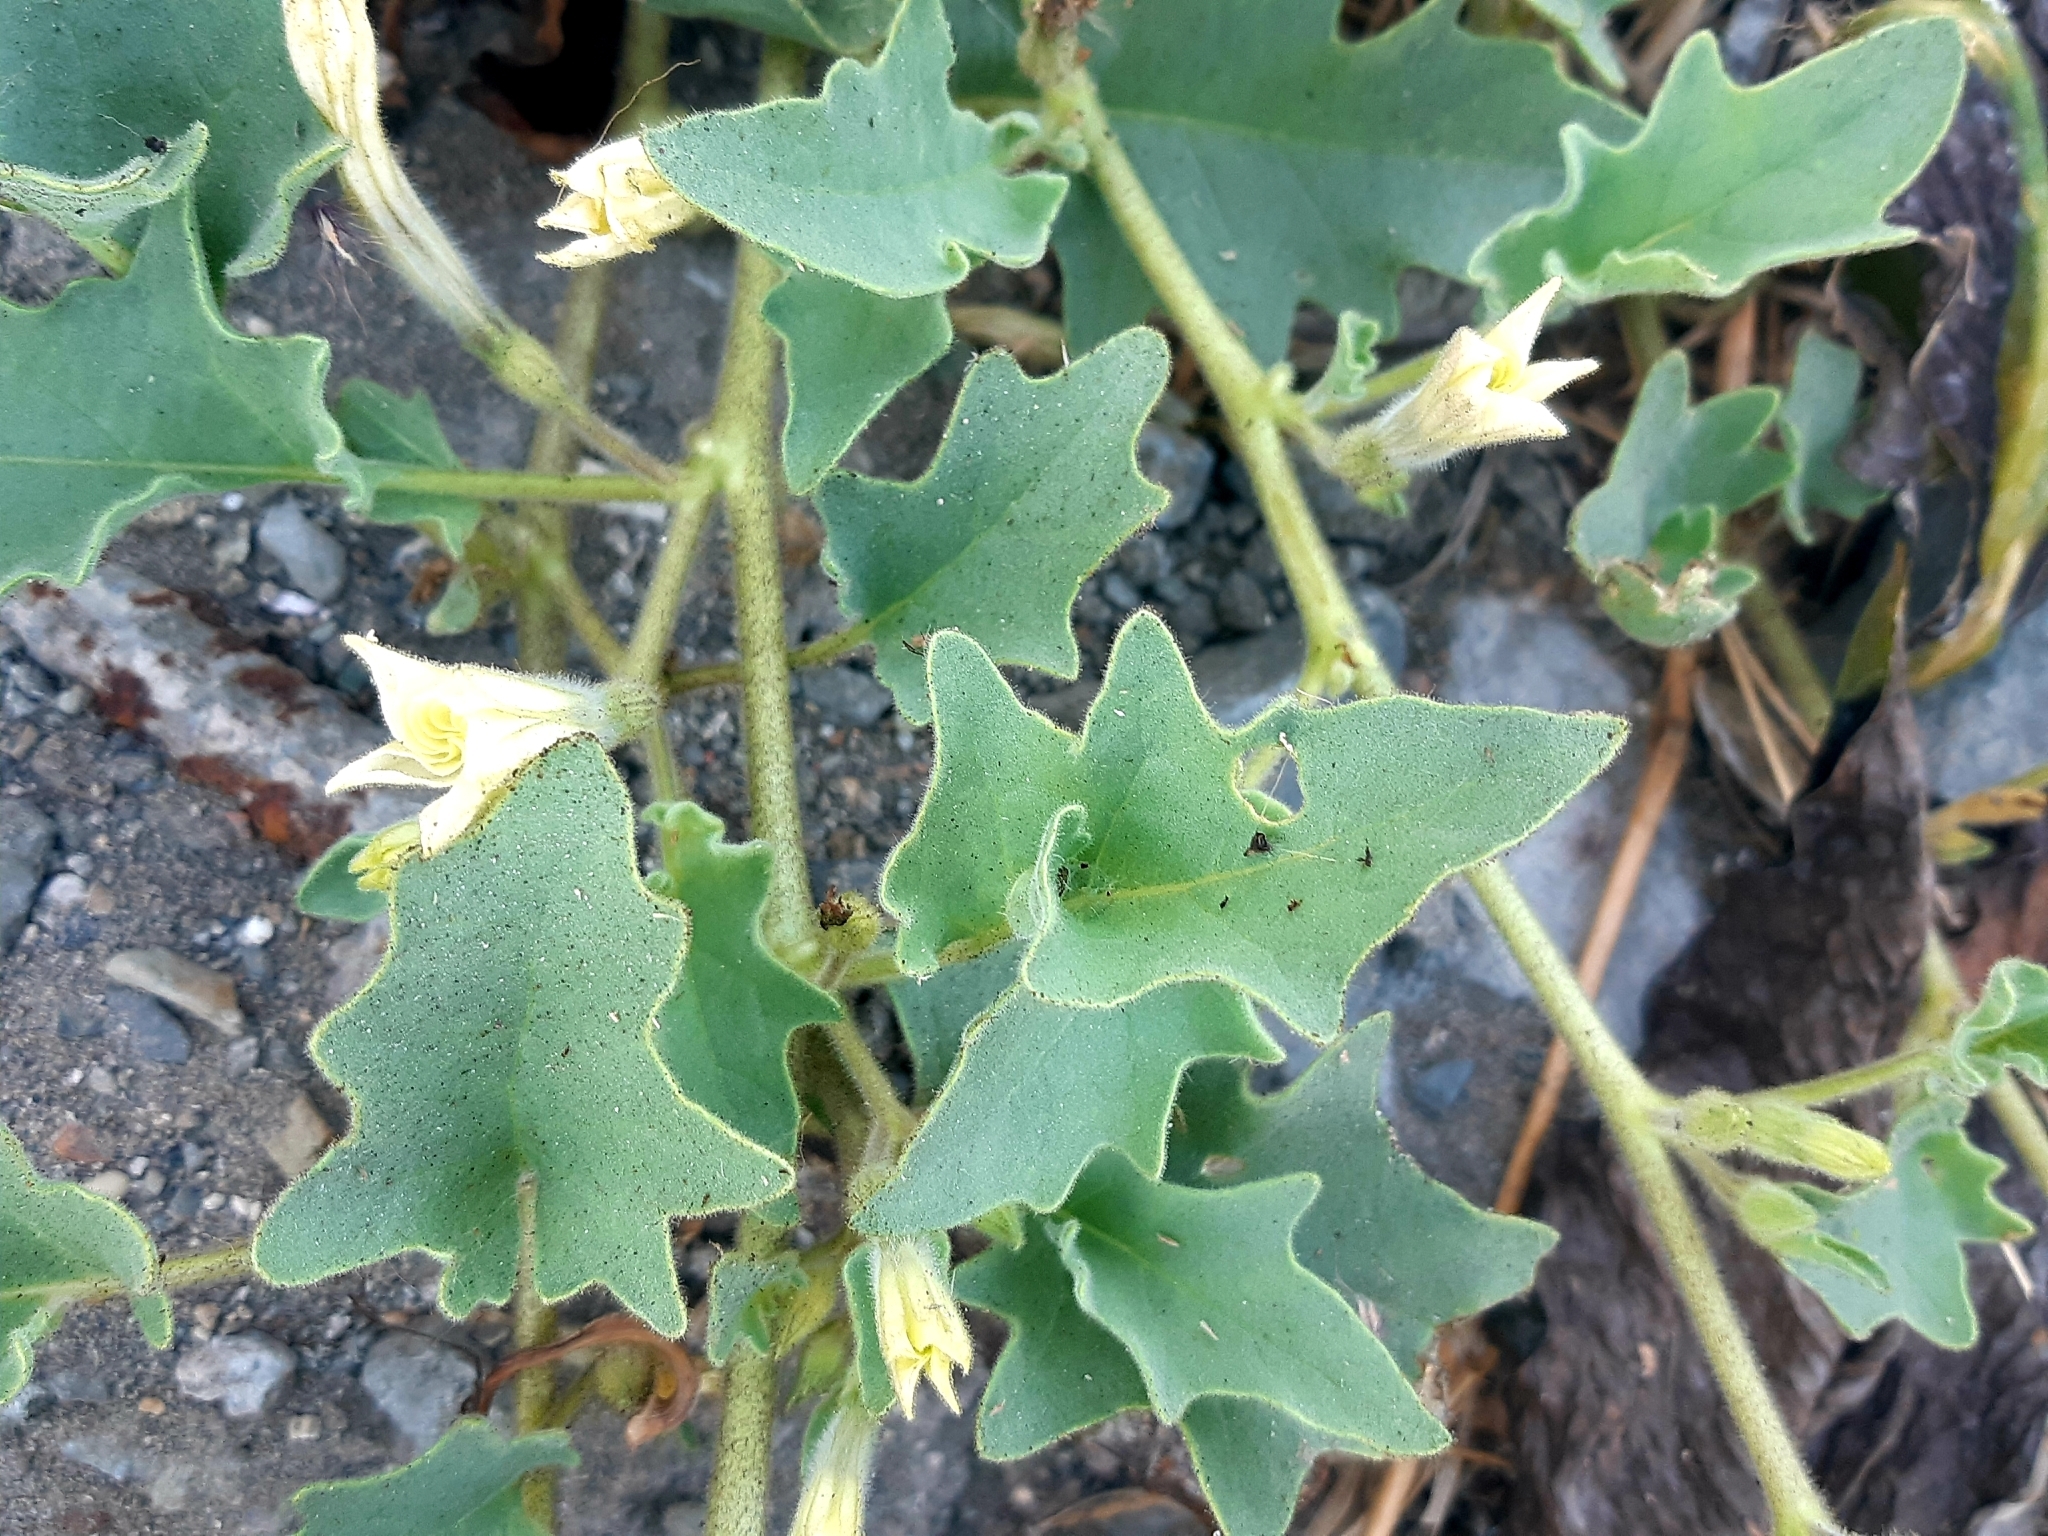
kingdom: Plantae
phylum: Tracheophyta
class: Magnoliopsida
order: Solanales
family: Solanaceae
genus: Exodeconus
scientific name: Exodeconus maritima
